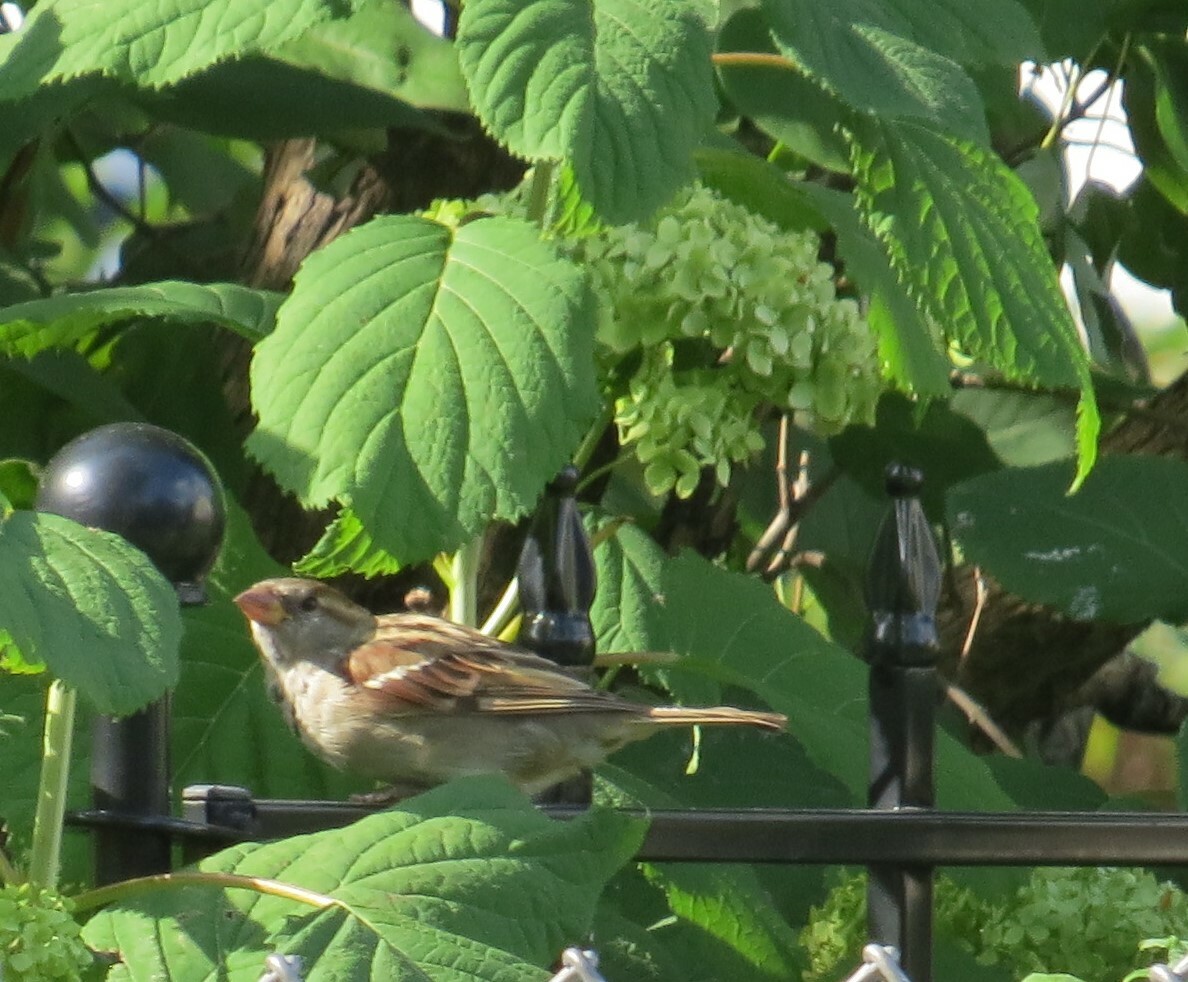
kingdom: Animalia
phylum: Chordata
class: Aves
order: Passeriformes
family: Passeridae
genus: Passer
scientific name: Passer domesticus
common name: House sparrow
